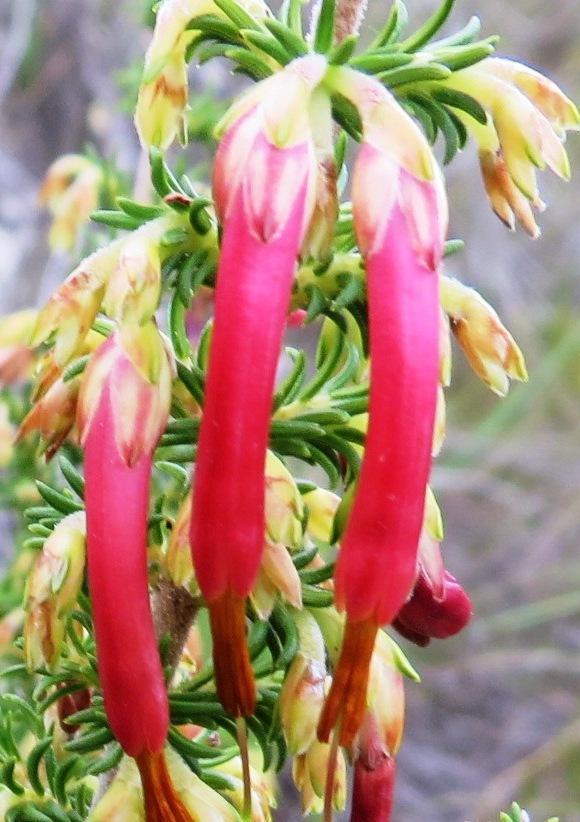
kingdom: Plantae
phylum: Tracheophyta
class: Magnoliopsida
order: Ericales
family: Ericaceae
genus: Erica
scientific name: Erica coccinea
